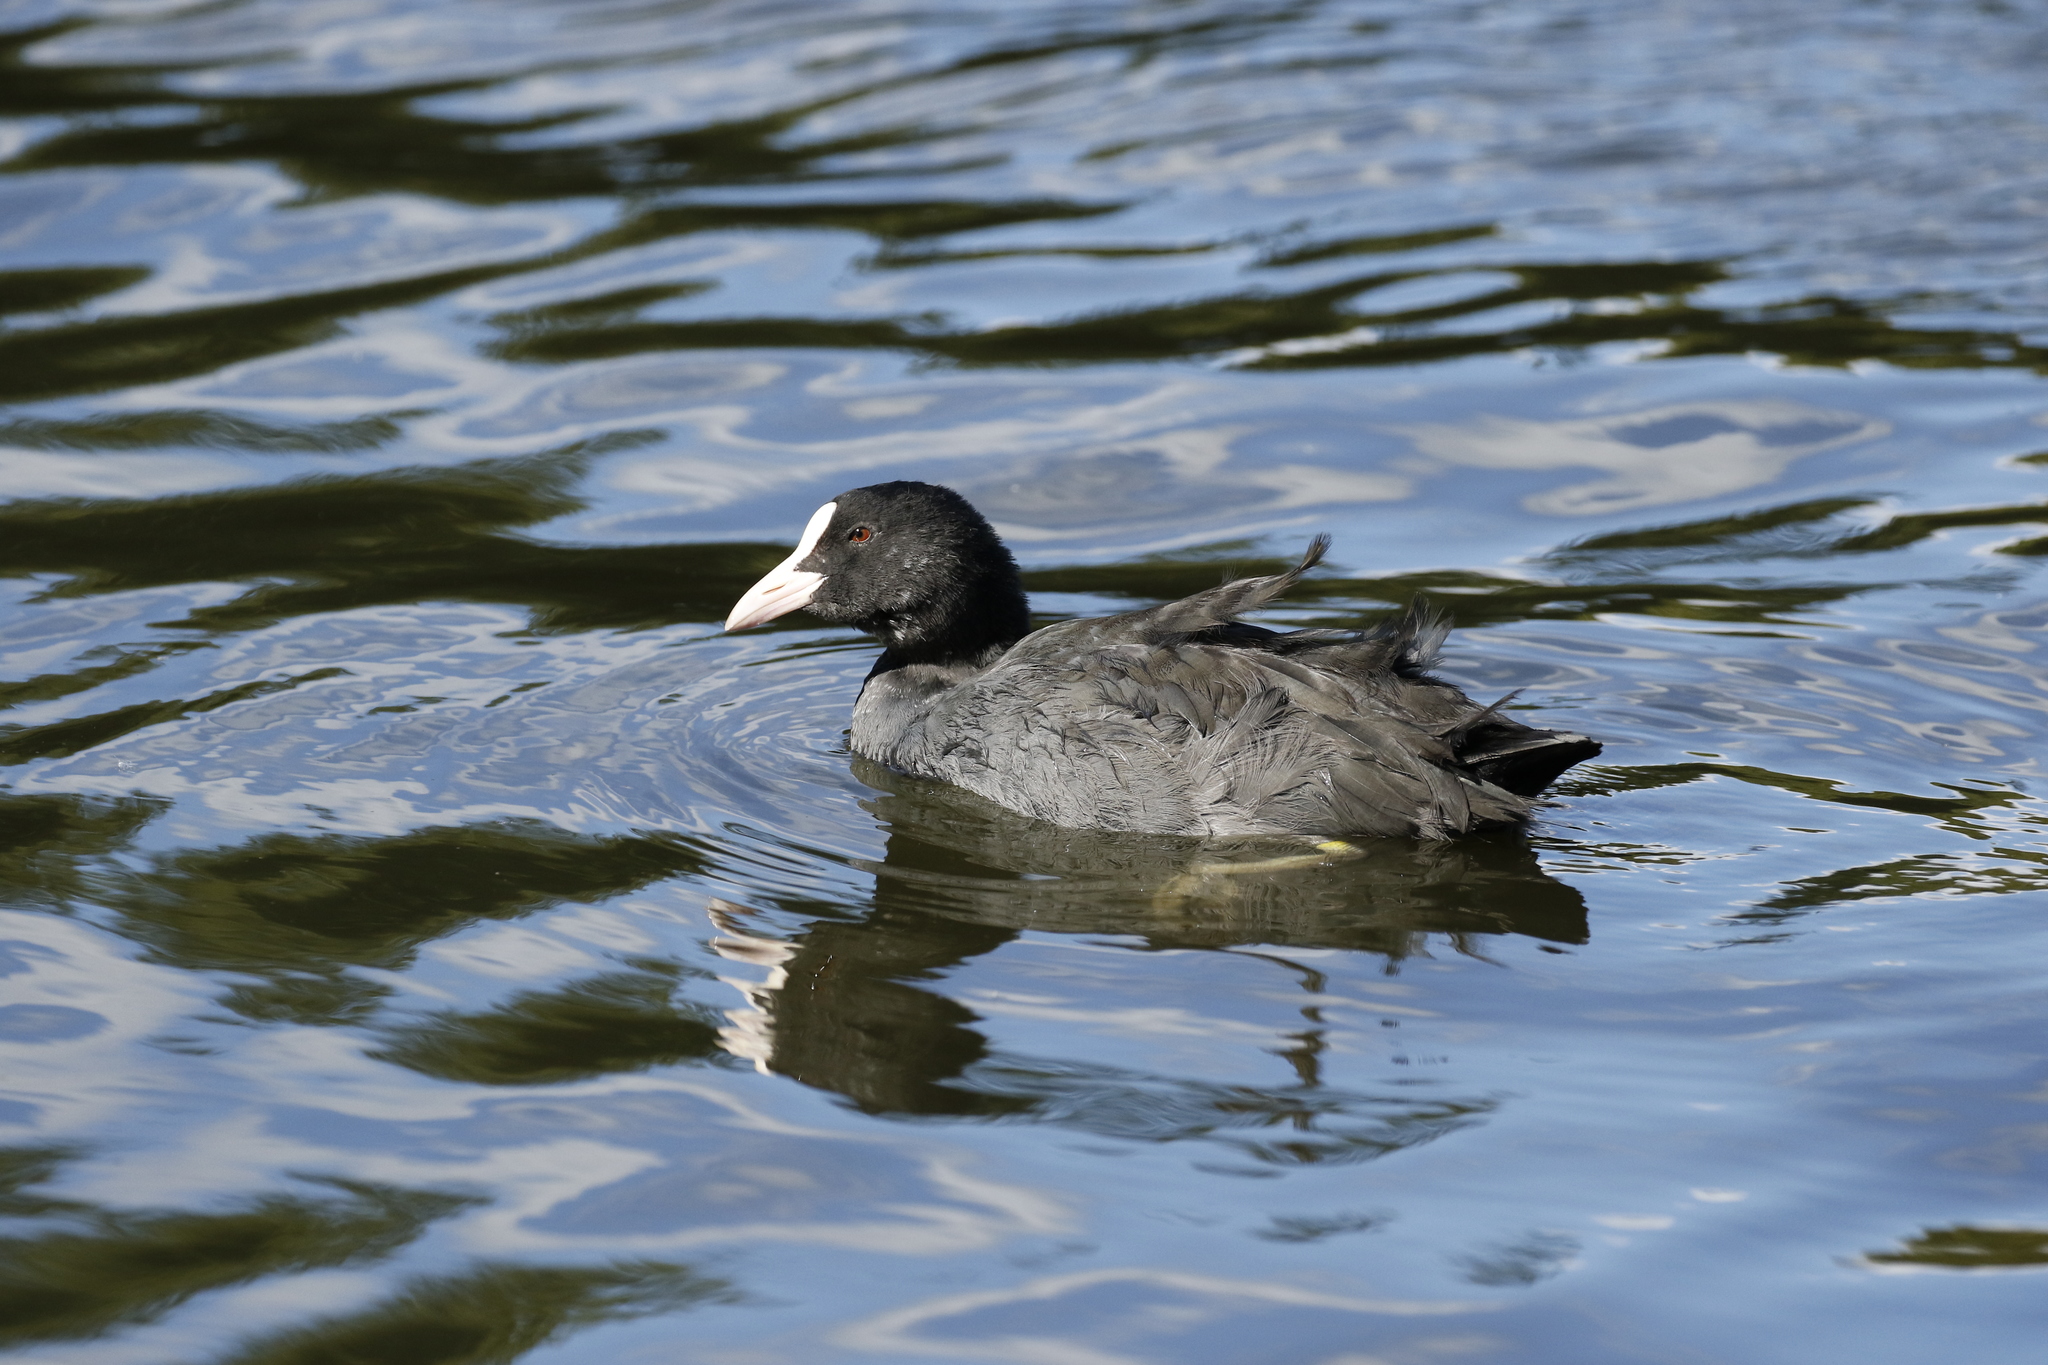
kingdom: Animalia
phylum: Chordata
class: Aves
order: Gruiformes
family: Rallidae
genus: Fulica
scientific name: Fulica atra
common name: Eurasian coot
